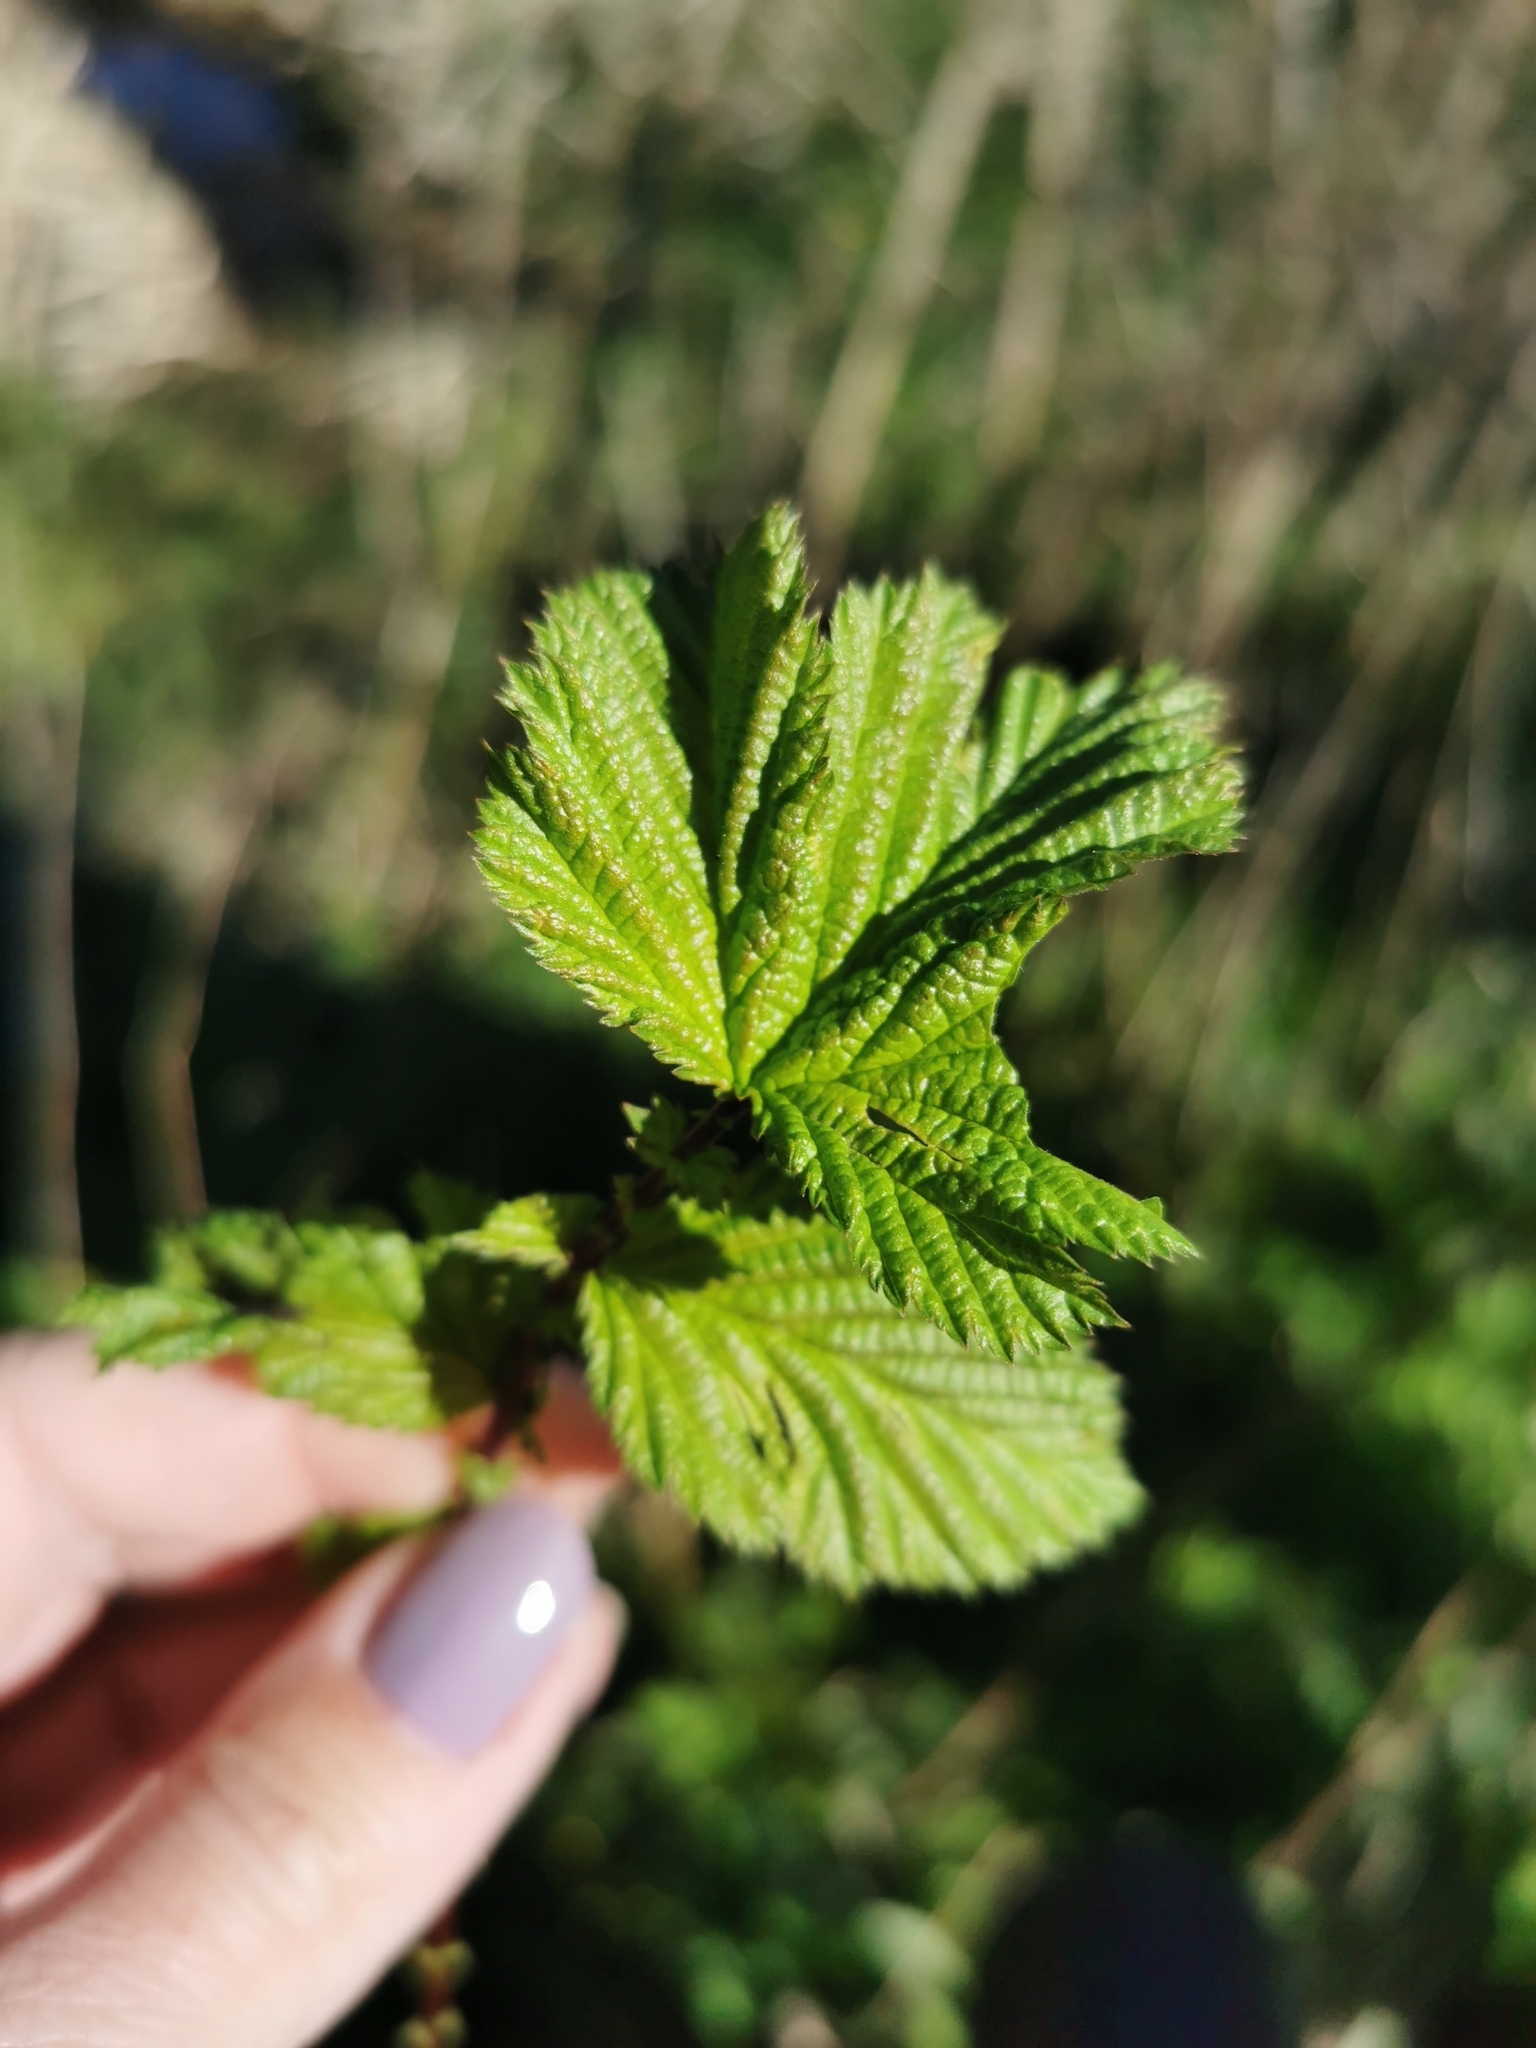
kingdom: Plantae
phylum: Tracheophyta
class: Magnoliopsida
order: Rosales
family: Rosaceae
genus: Filipendula
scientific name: Filipendula ulmaria
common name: Meadowsweet
